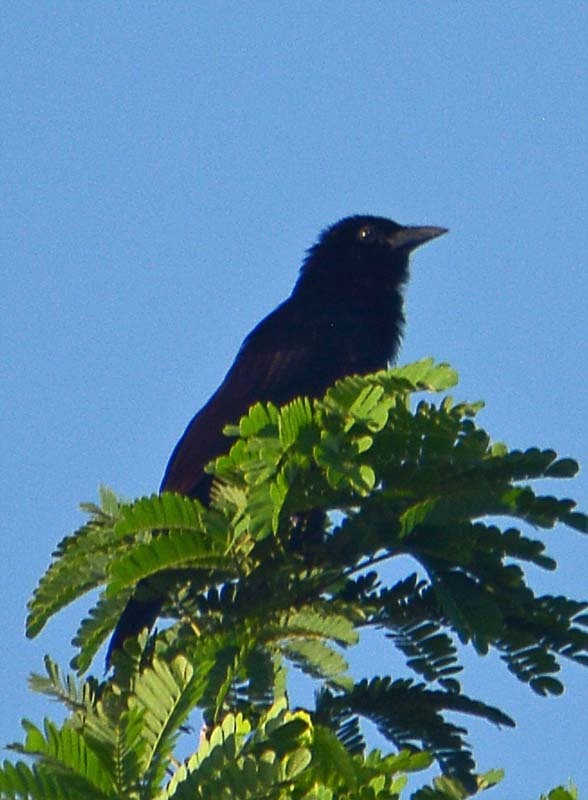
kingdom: Animalia
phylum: Chordata
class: Aves
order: Passeriformes
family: Icteridae
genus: Dives
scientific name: Dives dives
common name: Melodious blackbird
